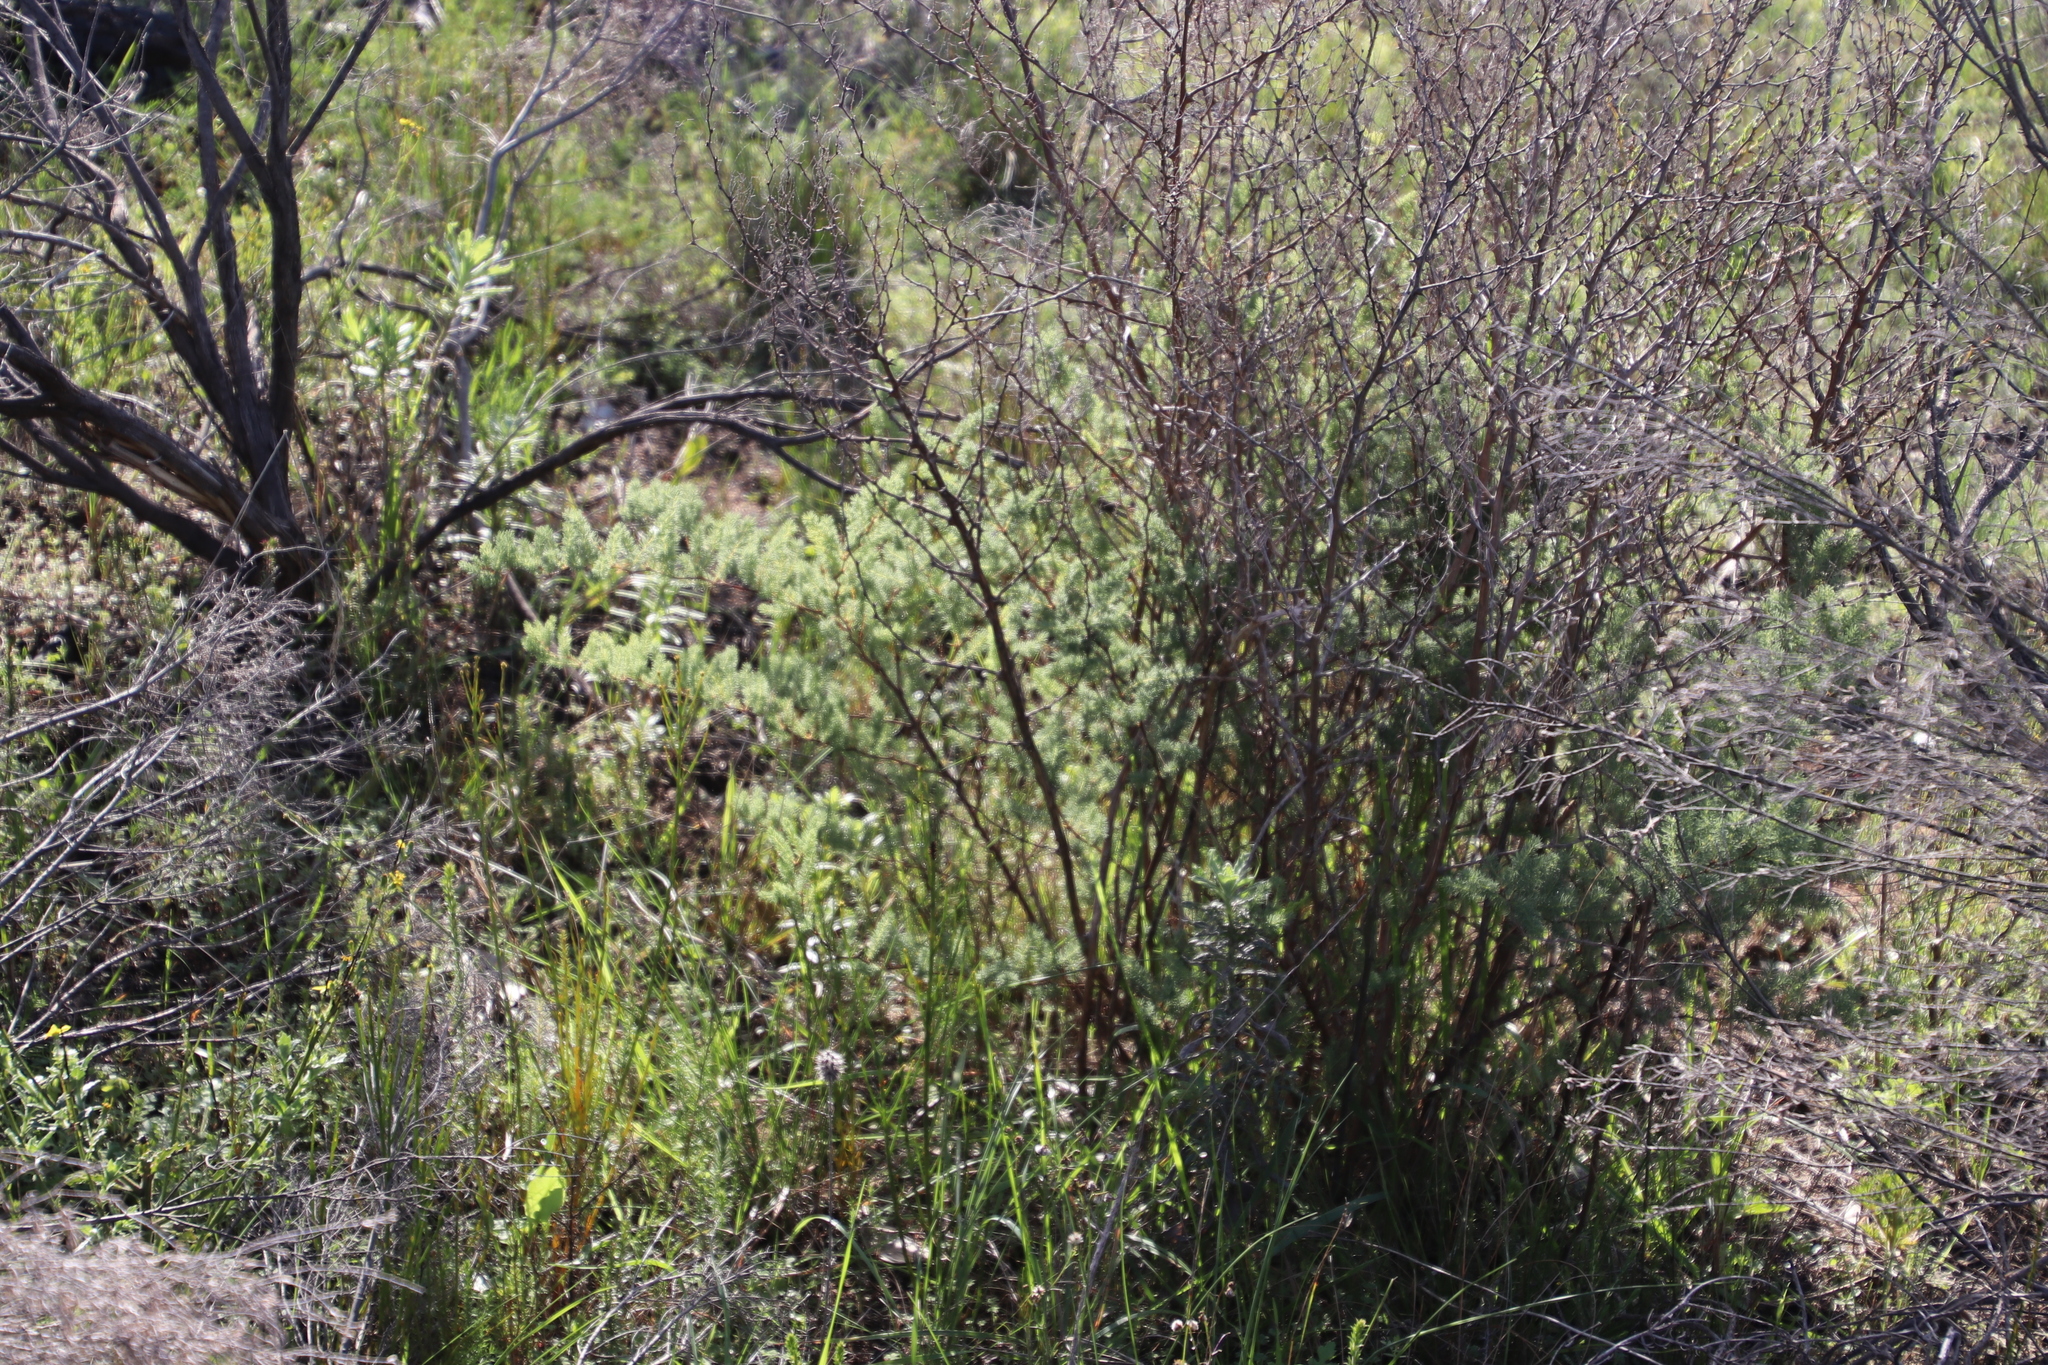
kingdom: Plantae
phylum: Tracheophyta
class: Liliopsida
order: Asparagales
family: Asparagaceae
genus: Asparagus
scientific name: Asparagus rubicundus
